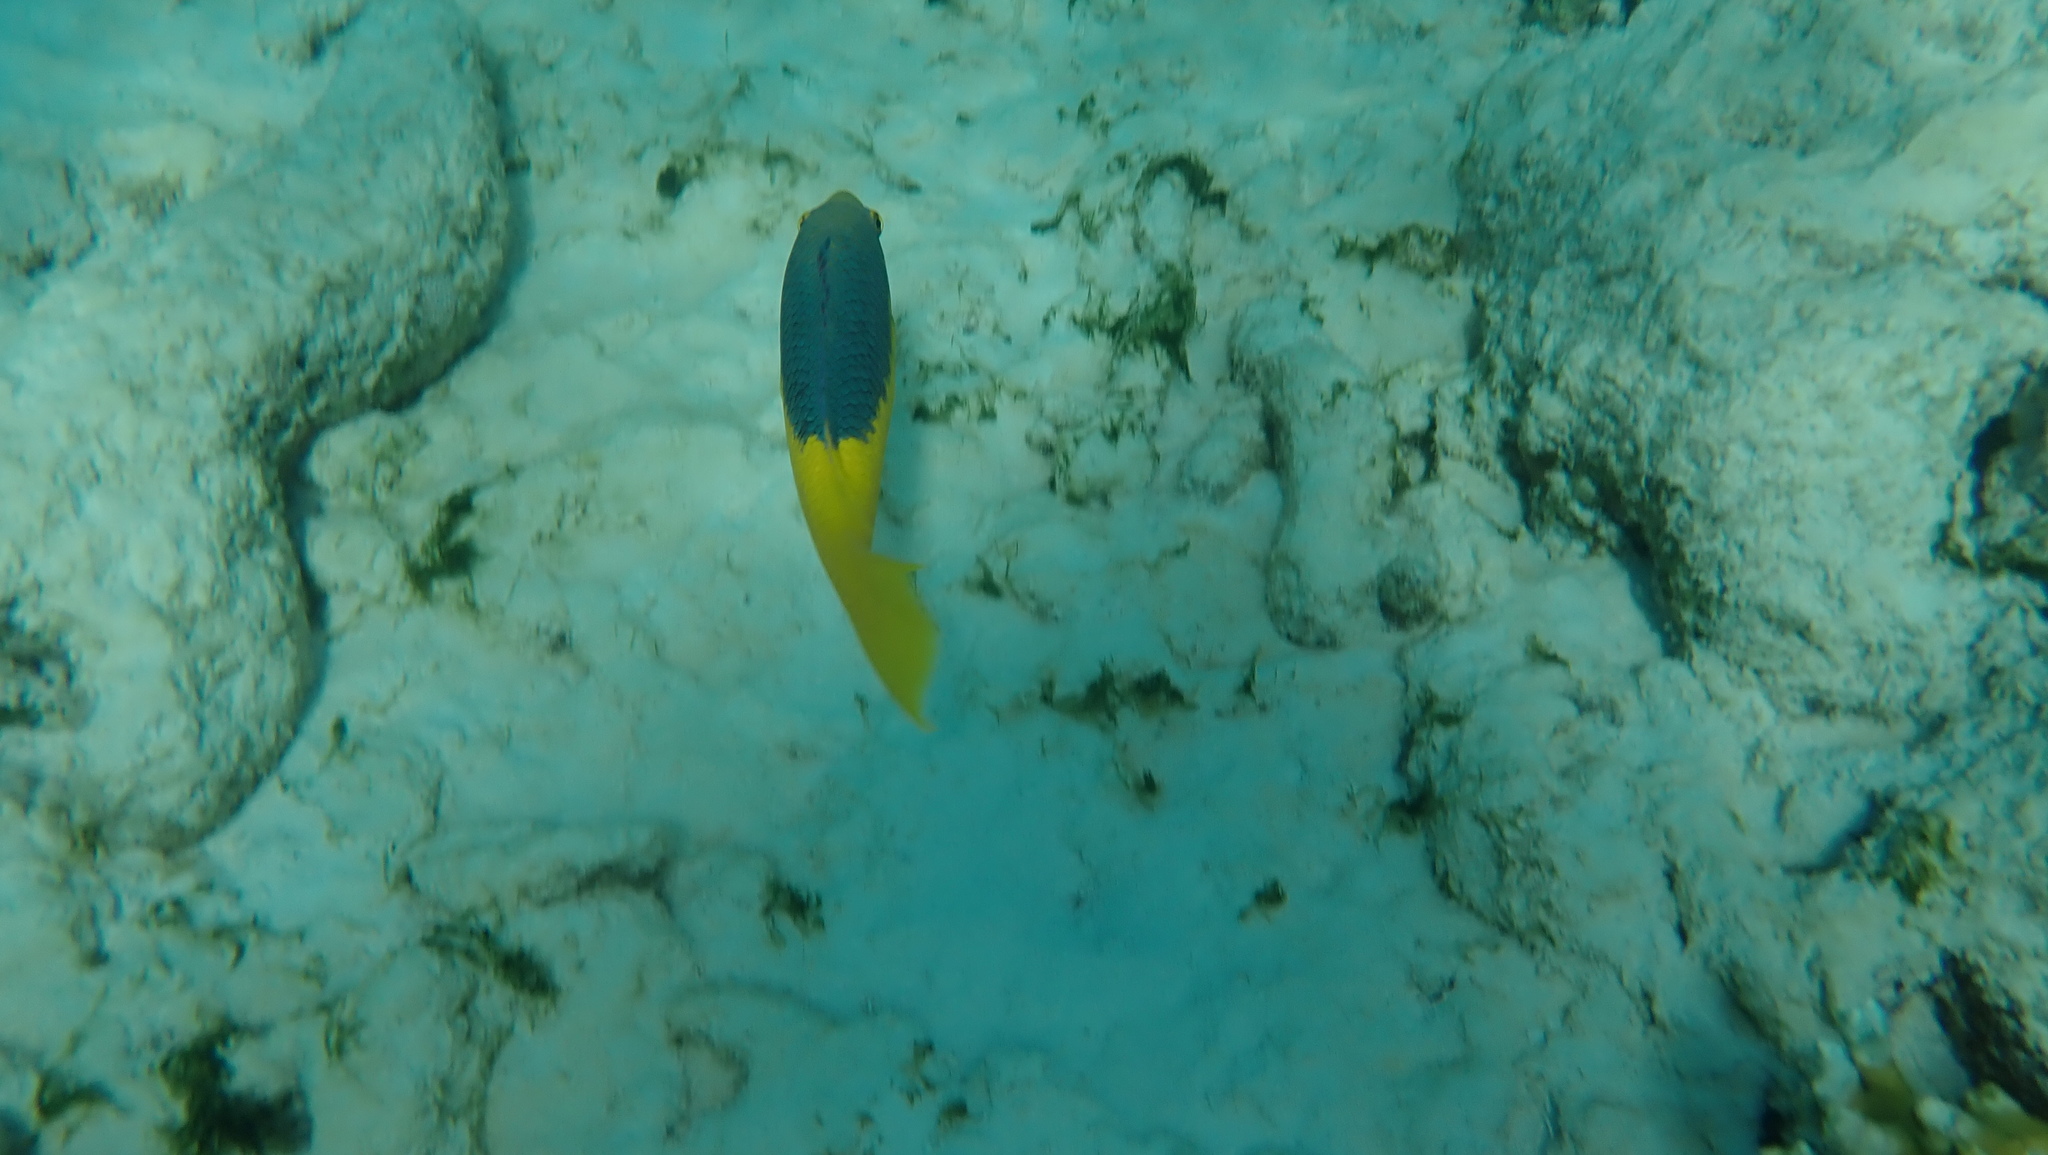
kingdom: Animalia
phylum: Chordata
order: Perciformes
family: Labridae
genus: Bodianus
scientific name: Bodianus rufus
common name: Spanish hogfish
